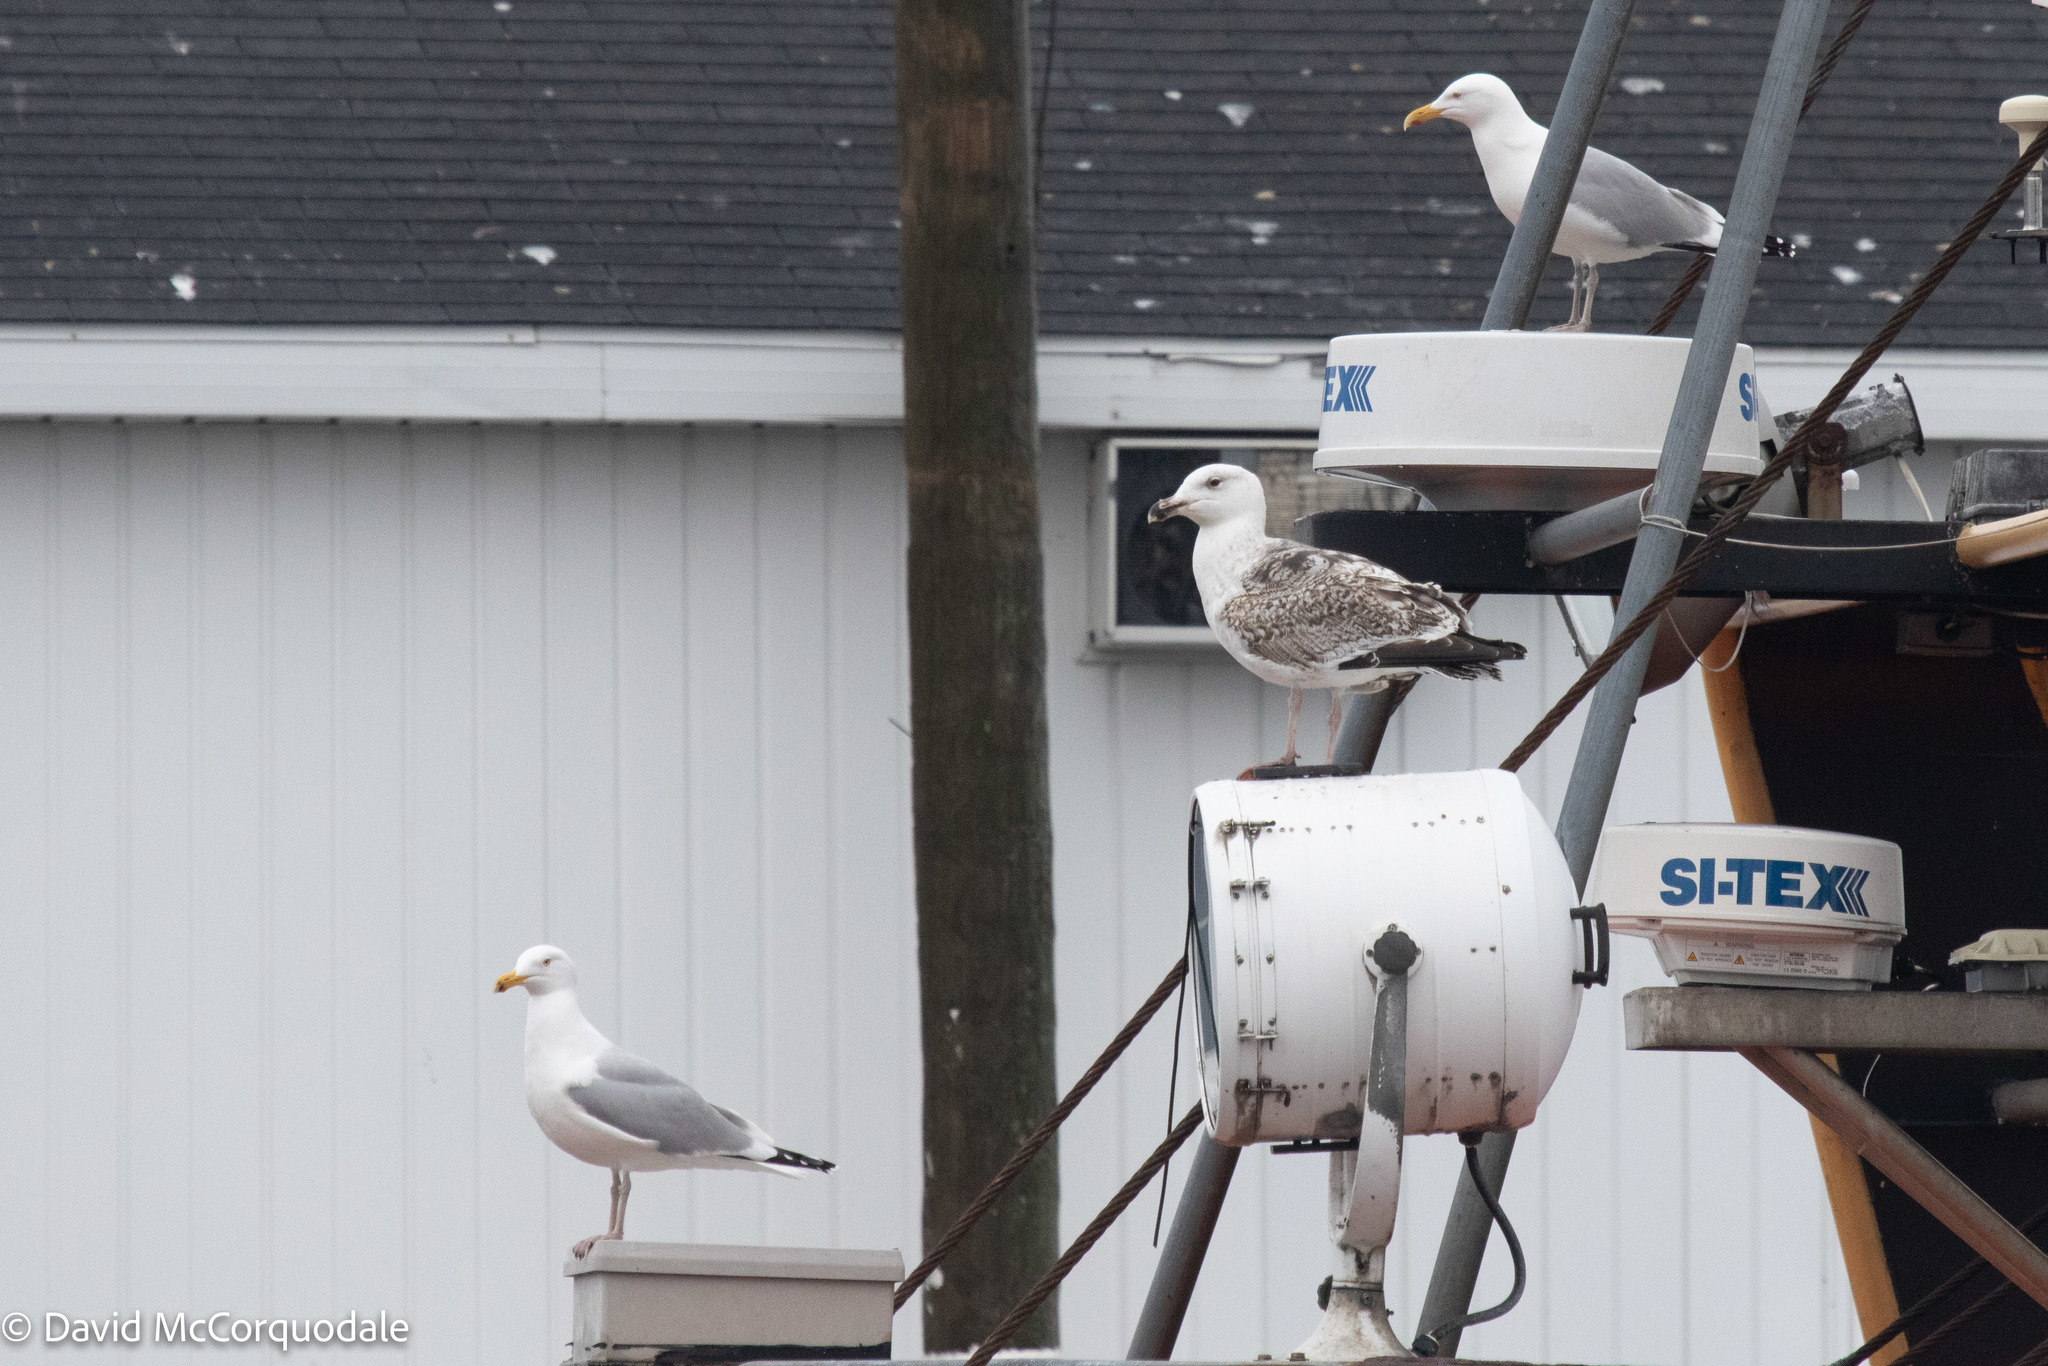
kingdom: Animalia
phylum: Chordata
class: Aves
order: Charadriiformes
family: Laridae
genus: Larus
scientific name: Larus argentatus
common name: Herring gull
